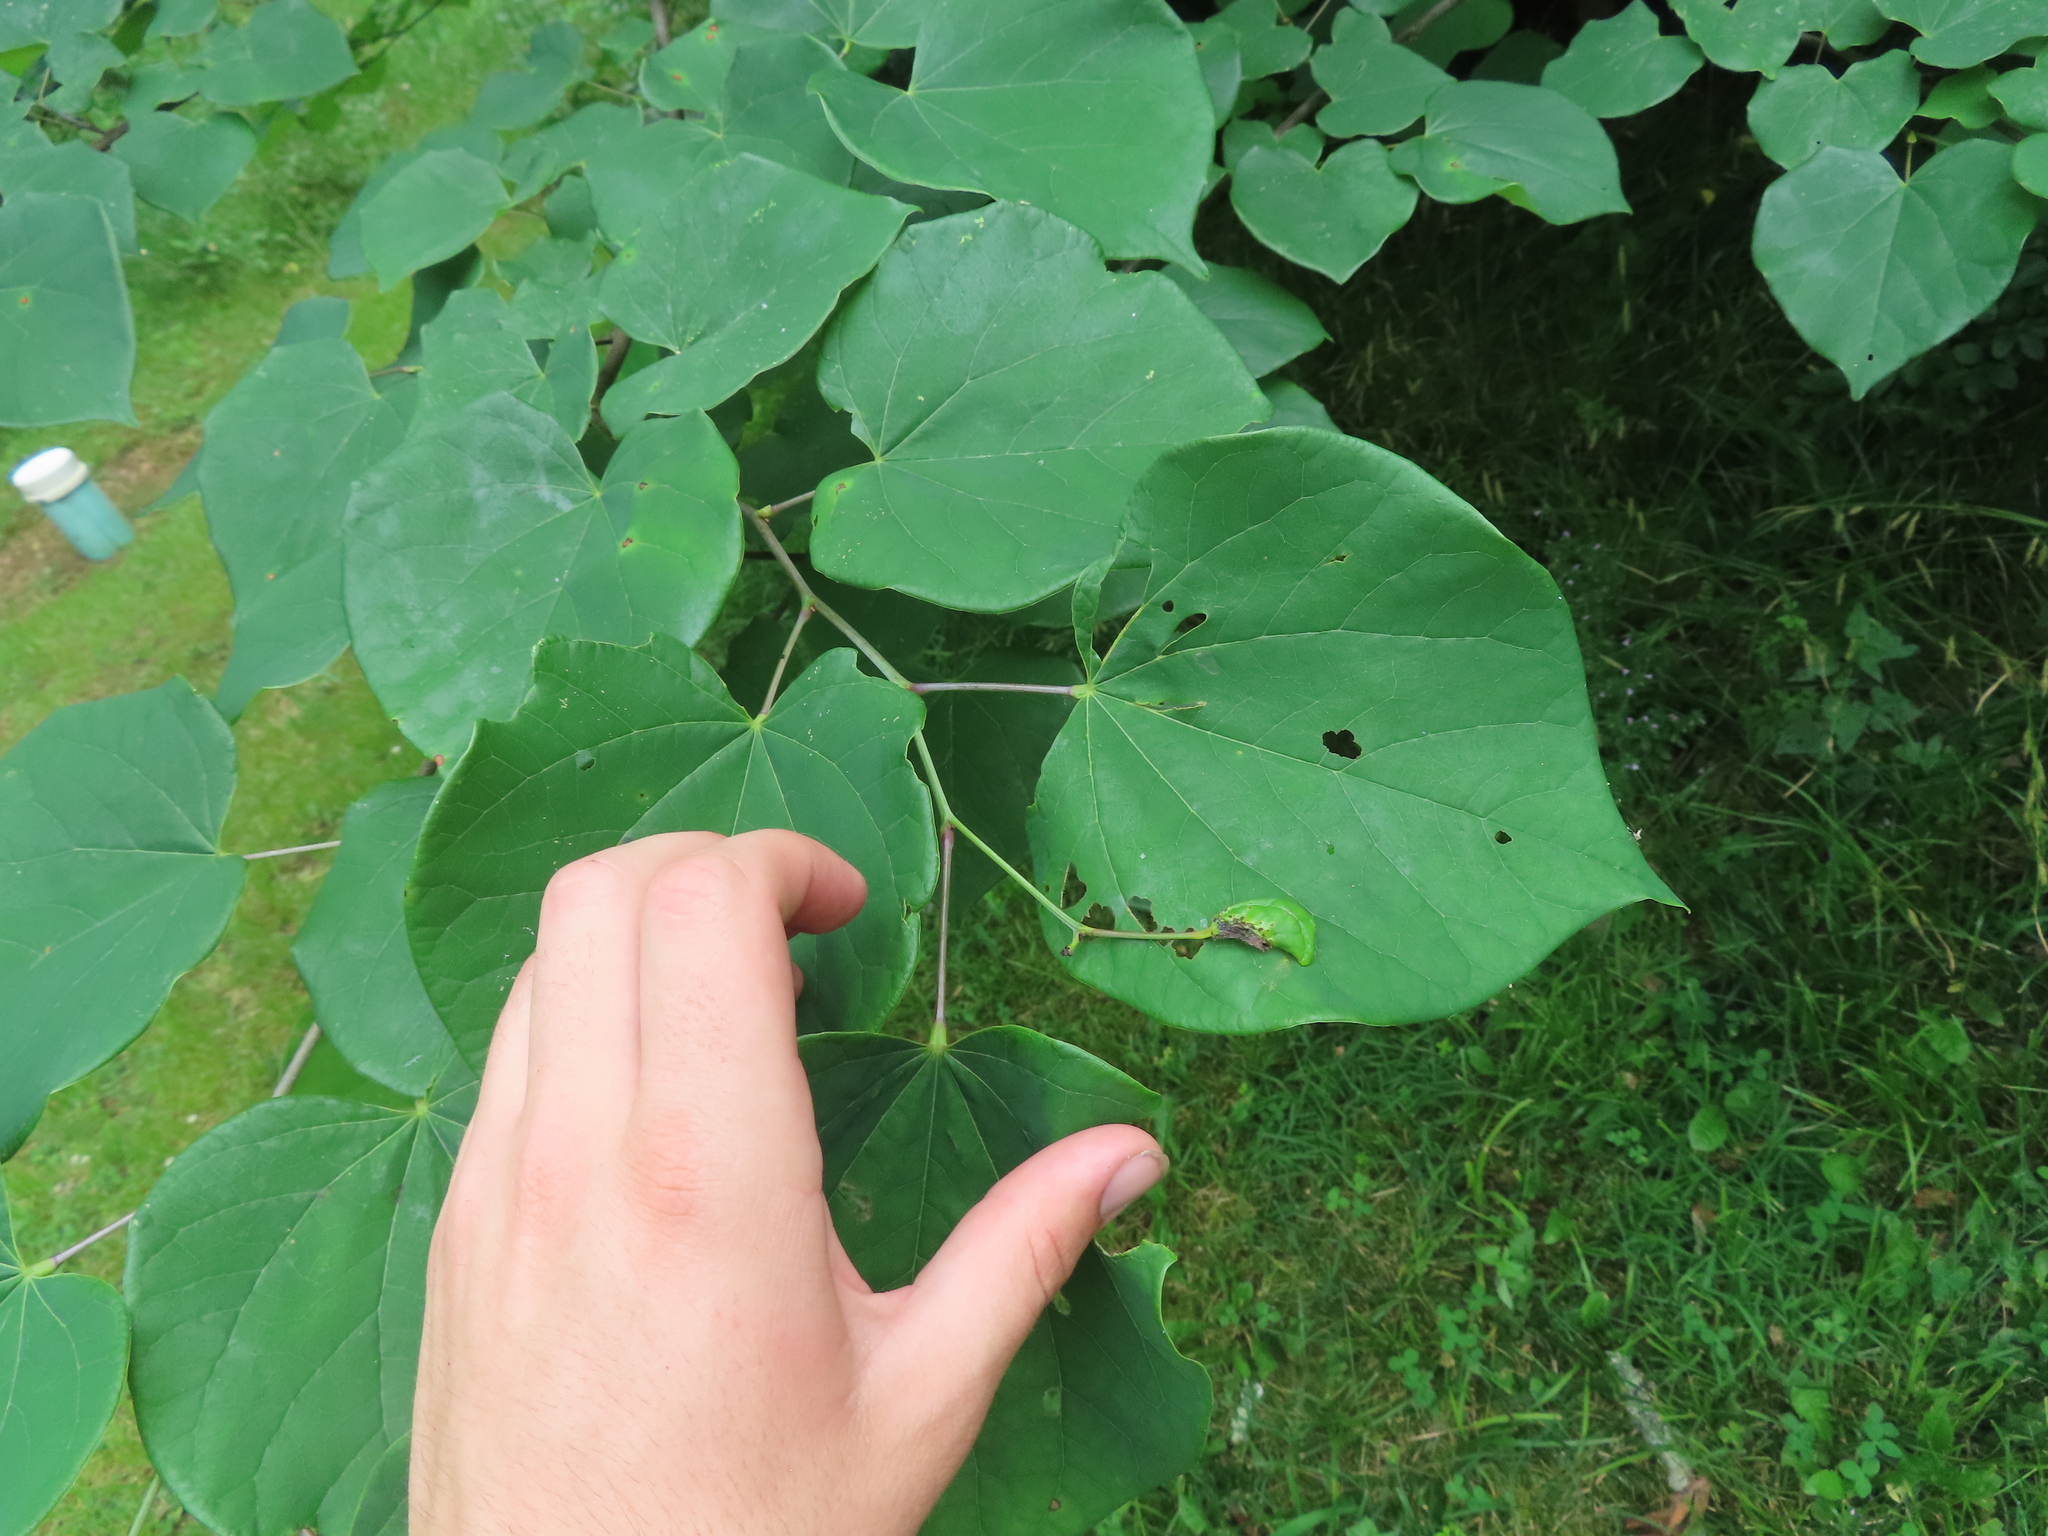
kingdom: Plantae
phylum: Tracheophyta
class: Magnoliopsida
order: Fabales
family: Fabaceae
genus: Cercis
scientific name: Cercis canadensis
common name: Eastern redbud
